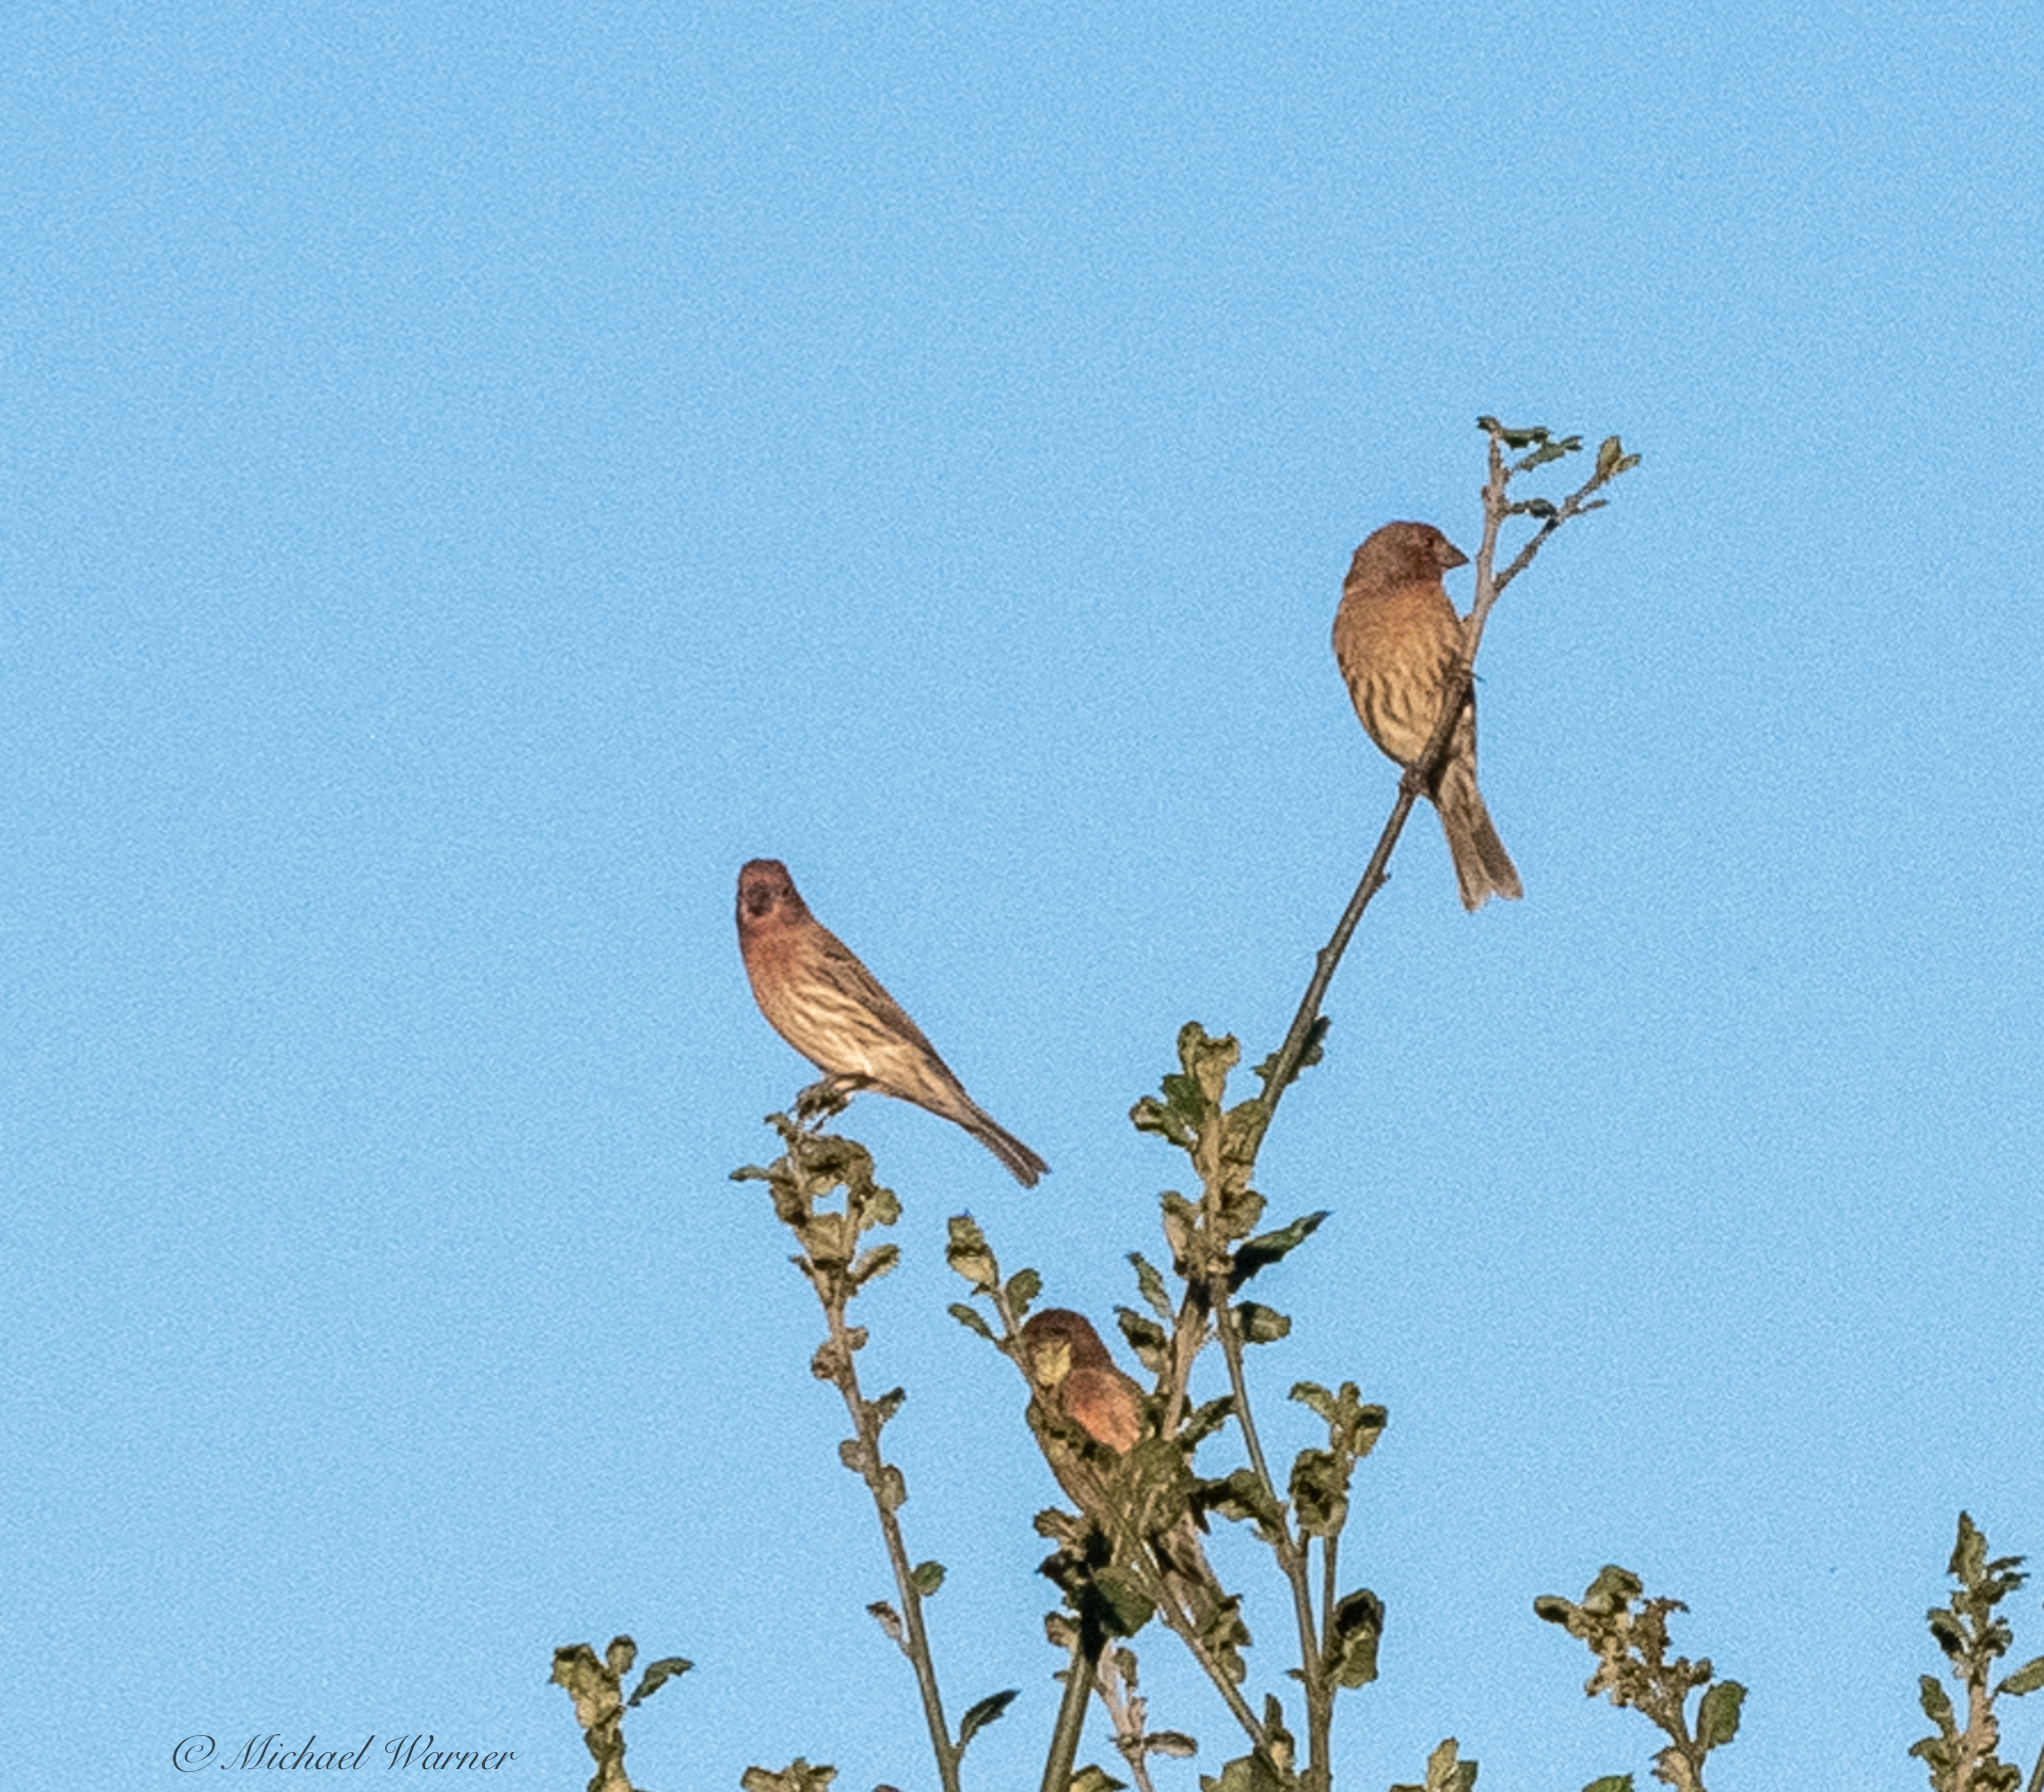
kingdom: Animalia
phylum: Chordata
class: Aves
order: Passeriformes
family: Fringillidae
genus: Haemorhous
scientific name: Haemorhous mexicanus
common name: House finch
